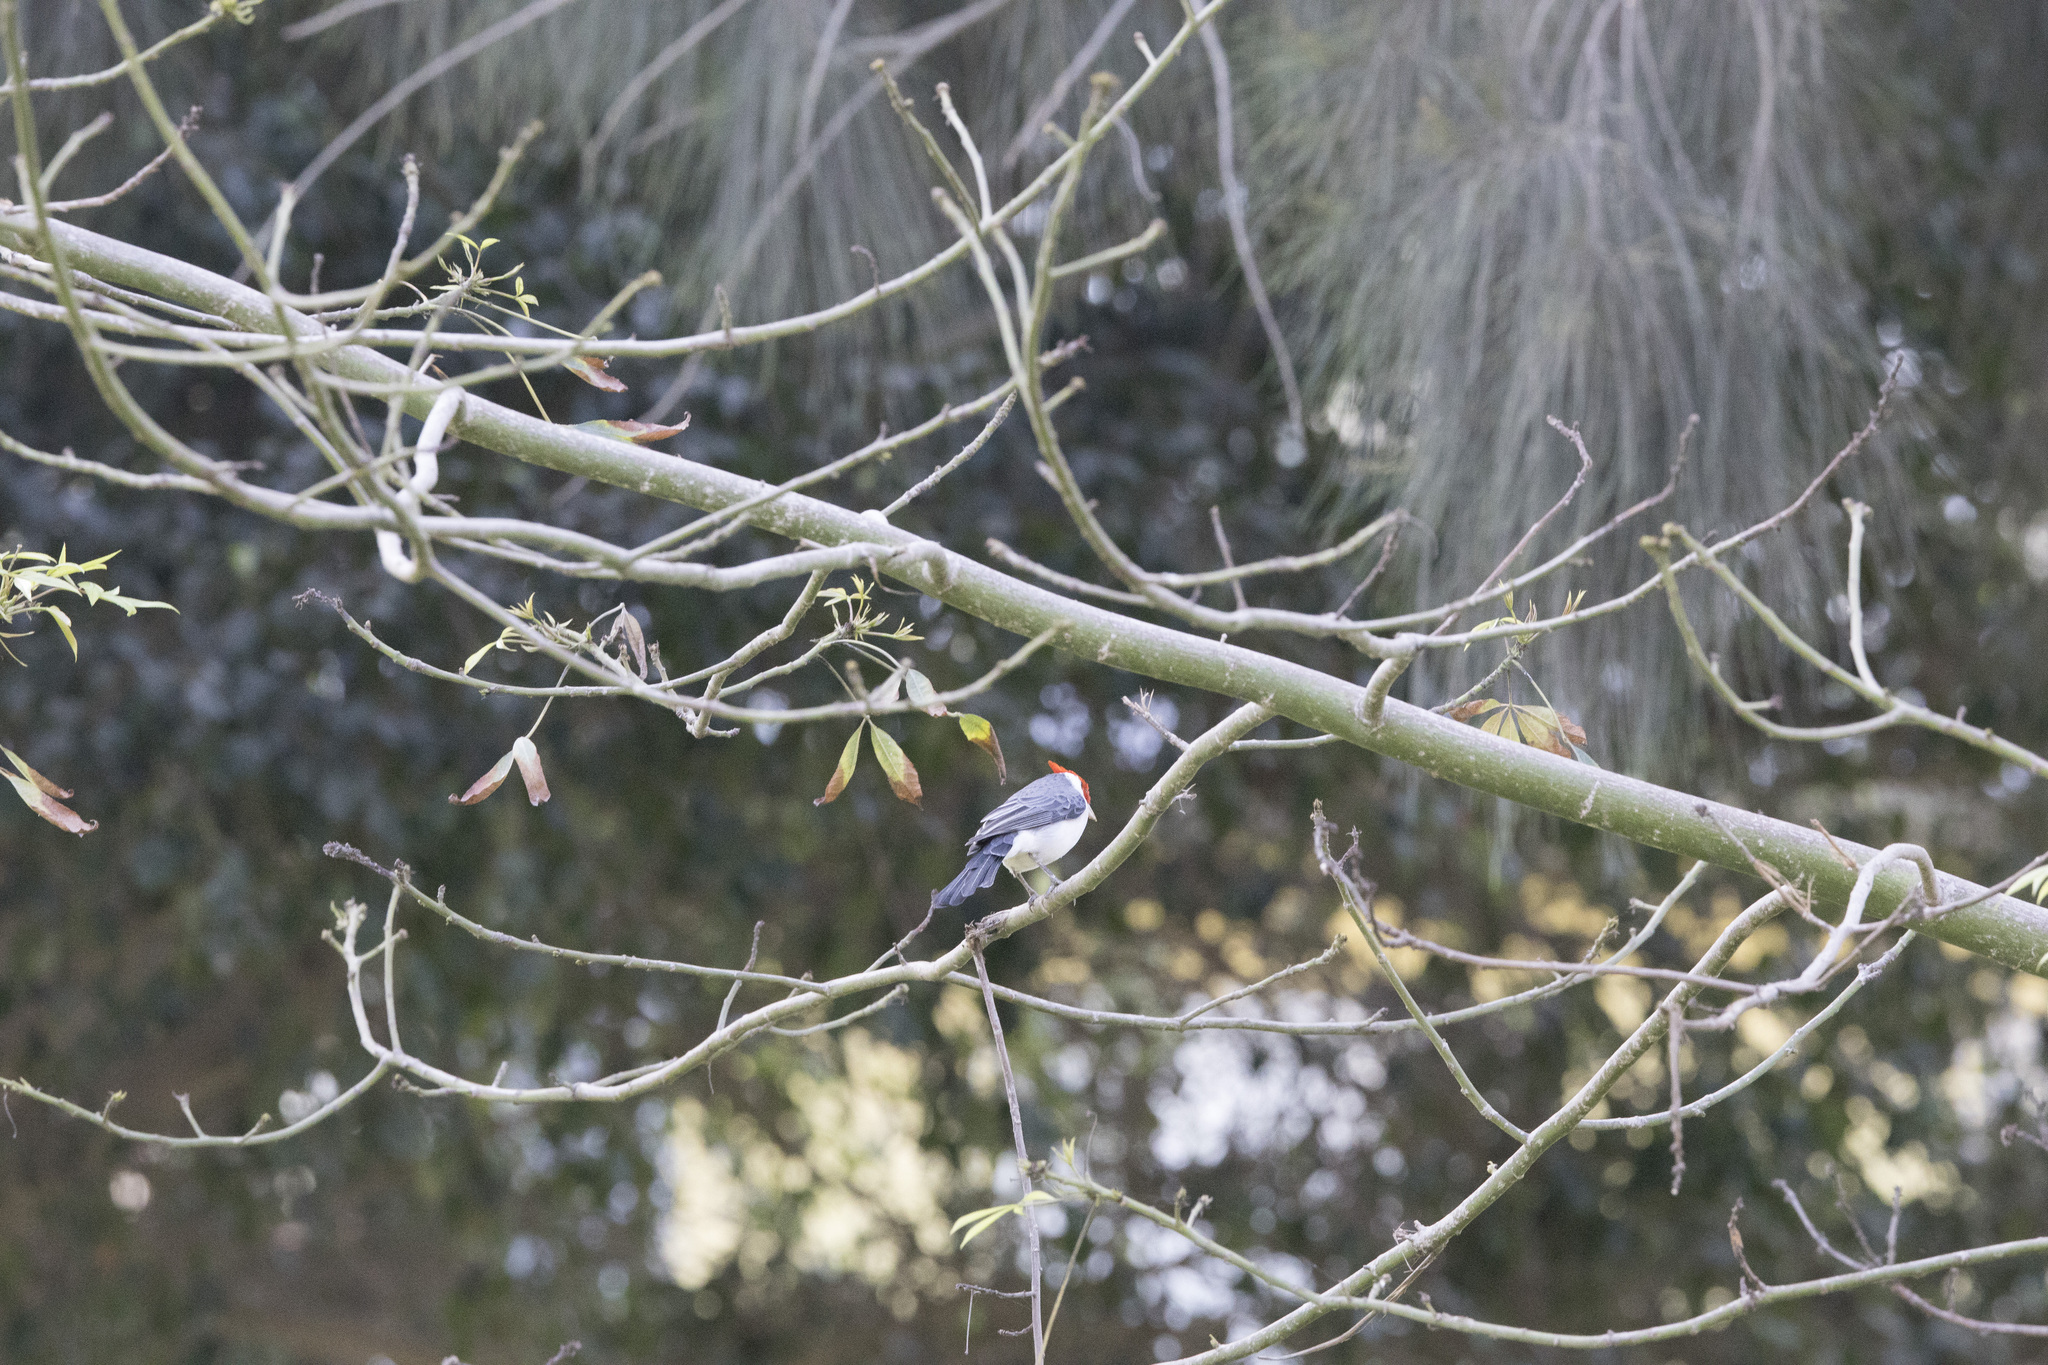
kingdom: Animalia
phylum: Chordata
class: Aves
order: Passeriformes
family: Thraupidae
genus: Paroaria
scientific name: Paroaria coronata
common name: Red-crested cardinal
